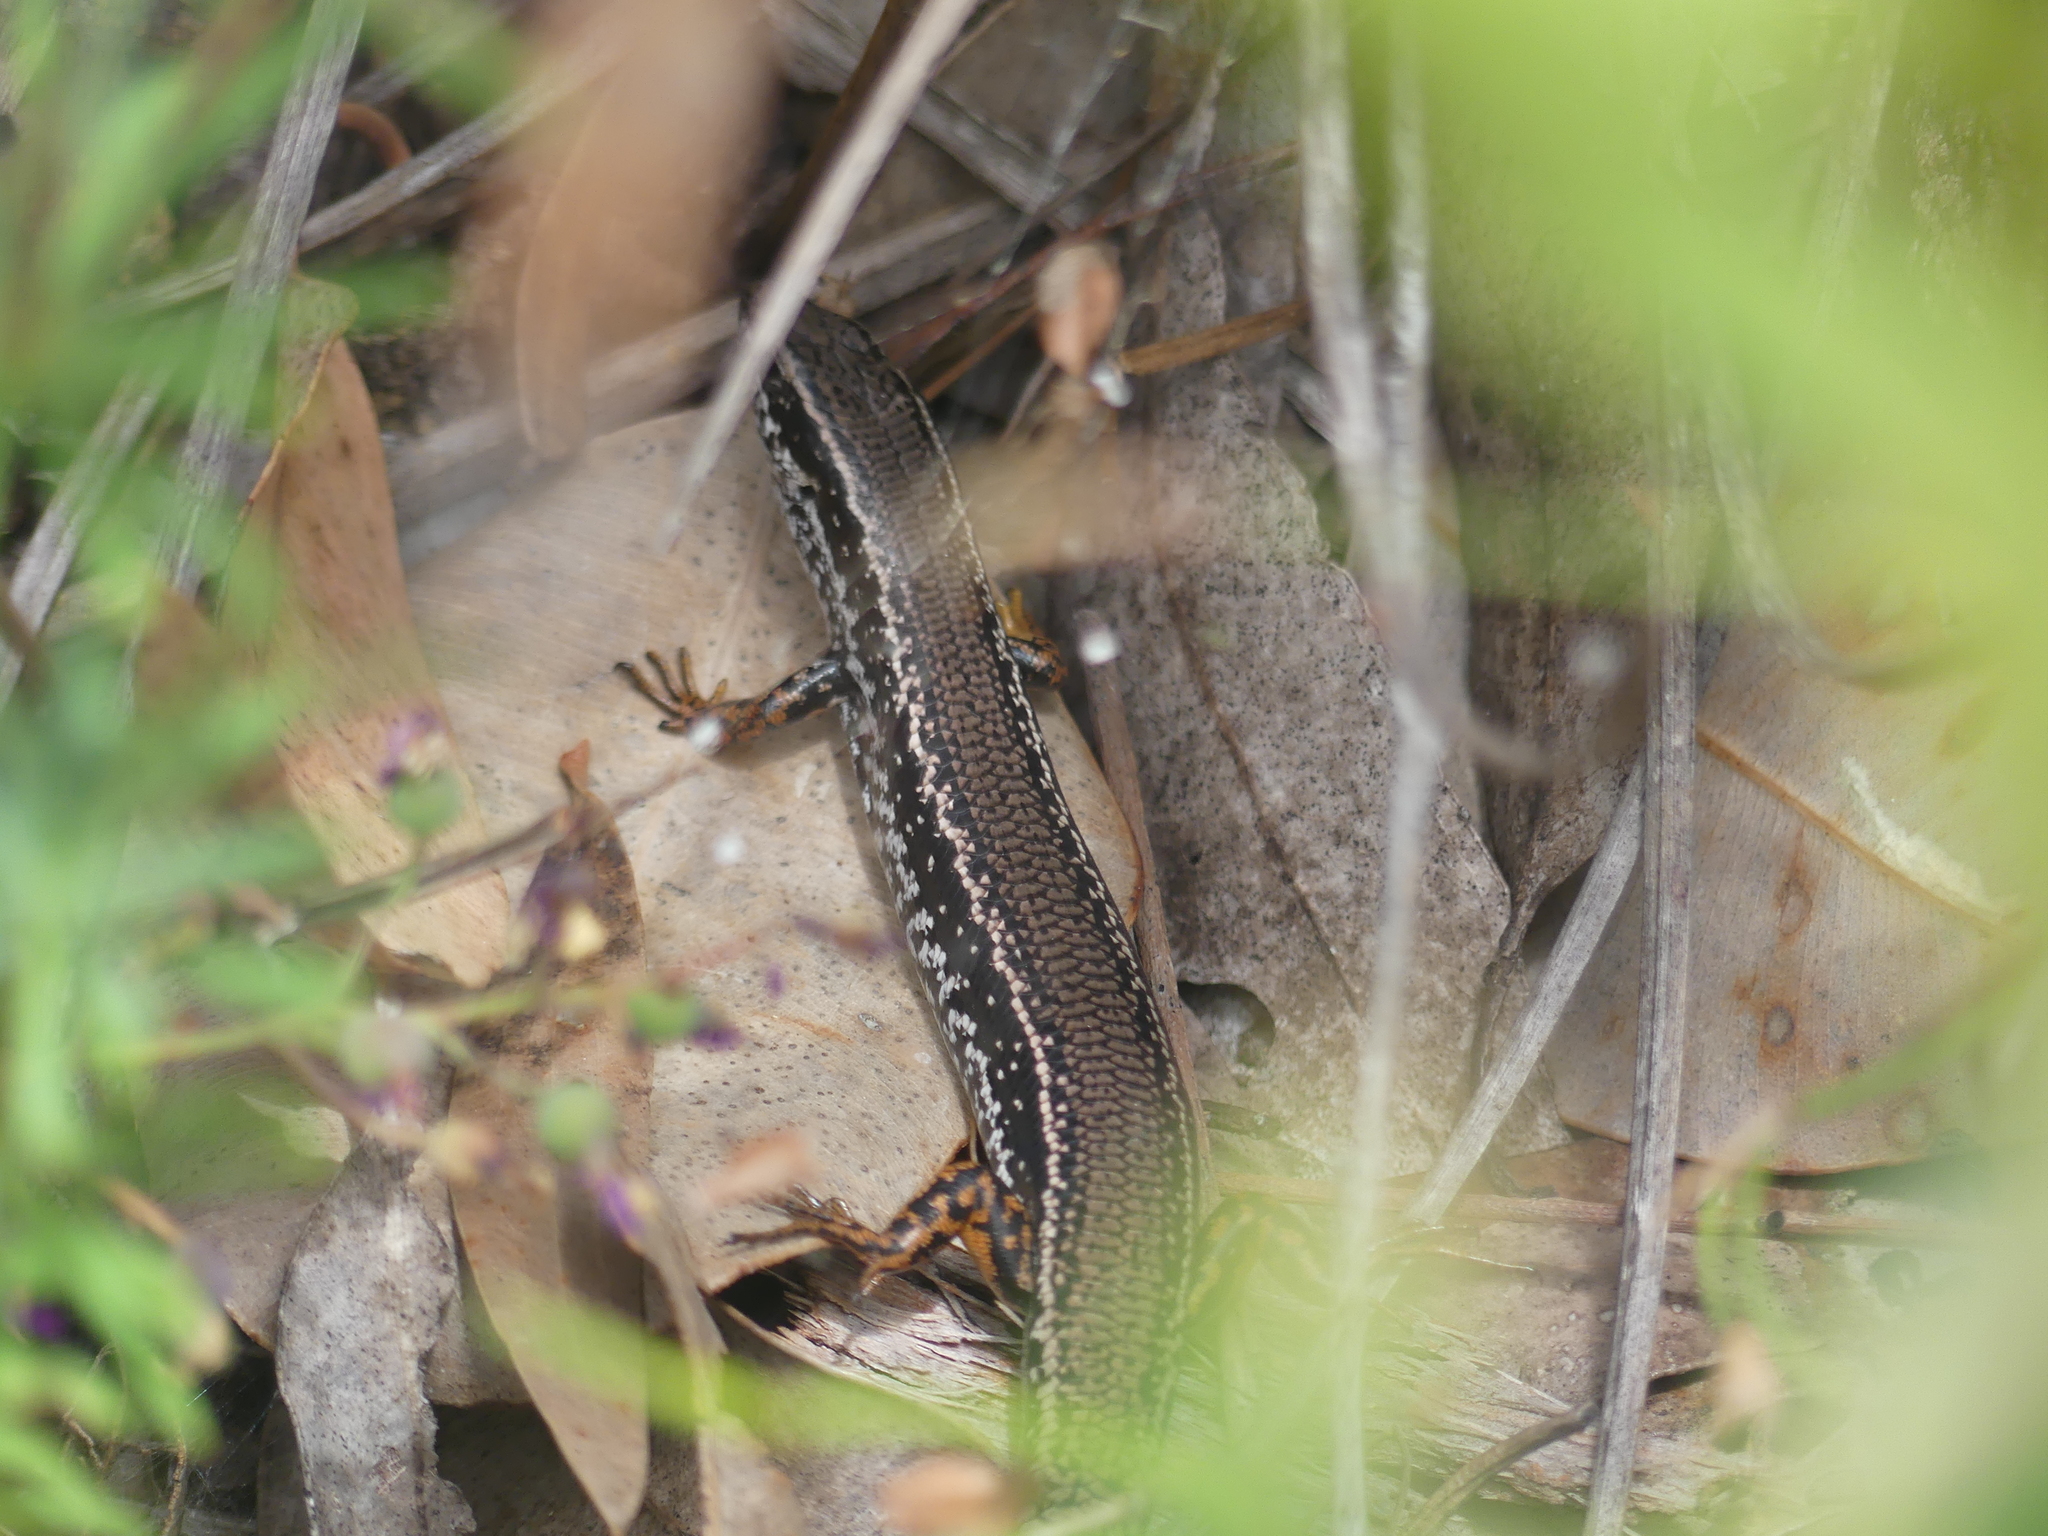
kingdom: Animalia
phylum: Chordata
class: Squamata
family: Scincidae
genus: Ctenotus
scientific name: Ctenotus labillardieri
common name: Common south-west ctenotus
